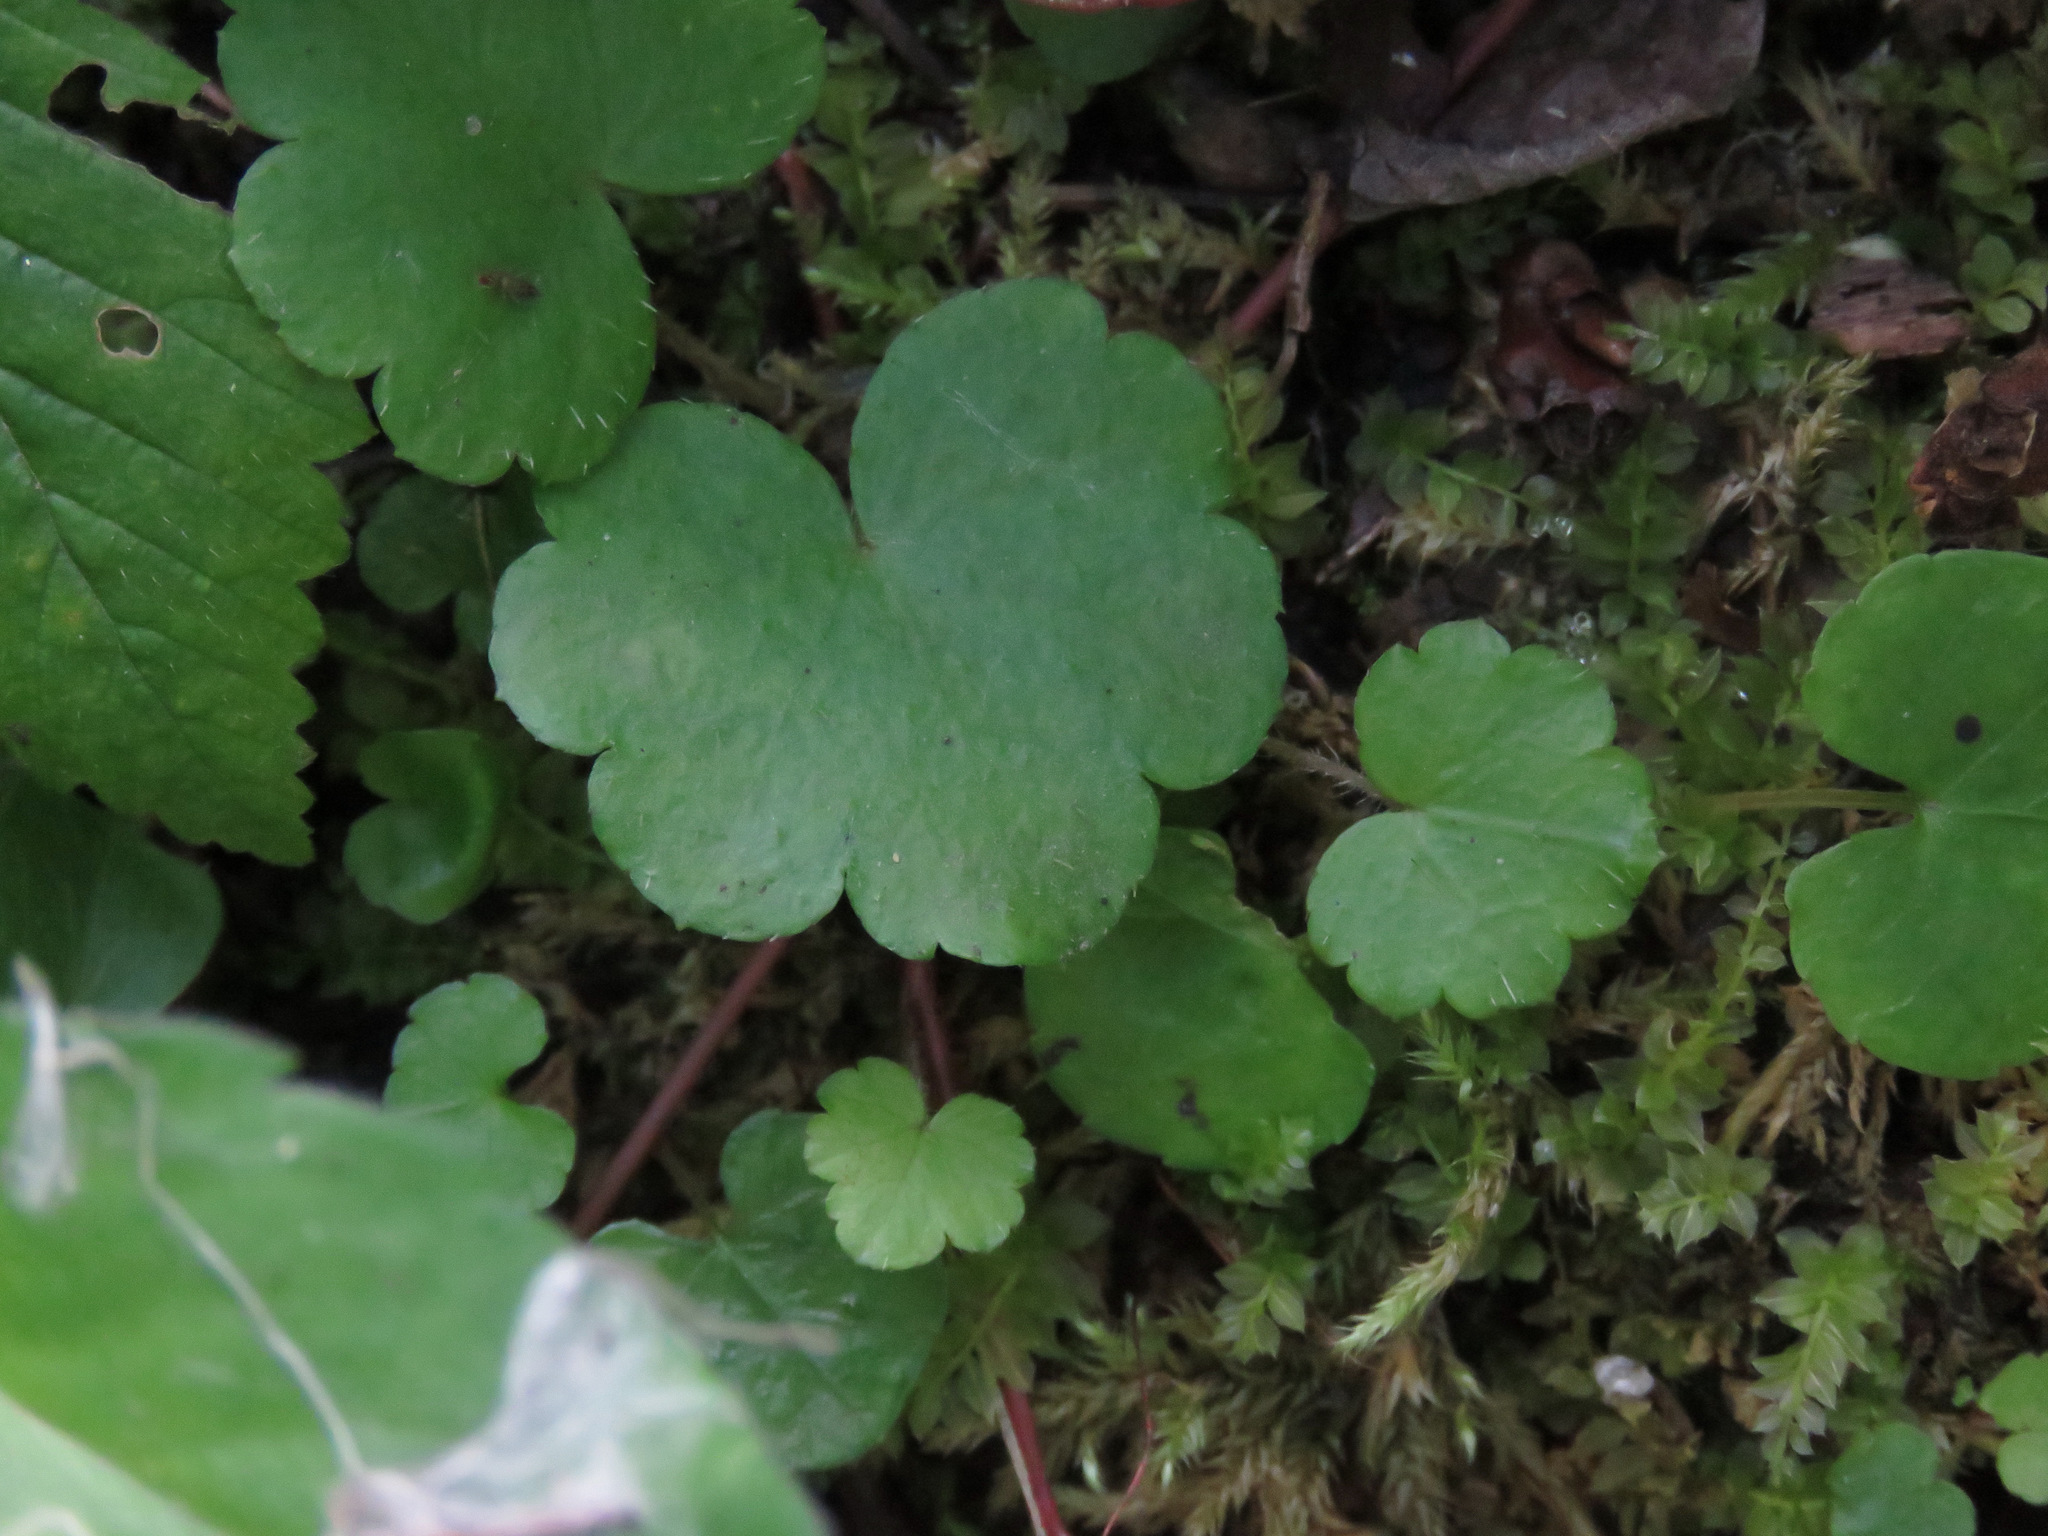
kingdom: Plantae
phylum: Tracheophyta
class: Magnoliopsida
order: Saxifragales
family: Saxifragaceae
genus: Mitella
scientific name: Mitella nuda
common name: Bare-stemmed bishop's-cap
